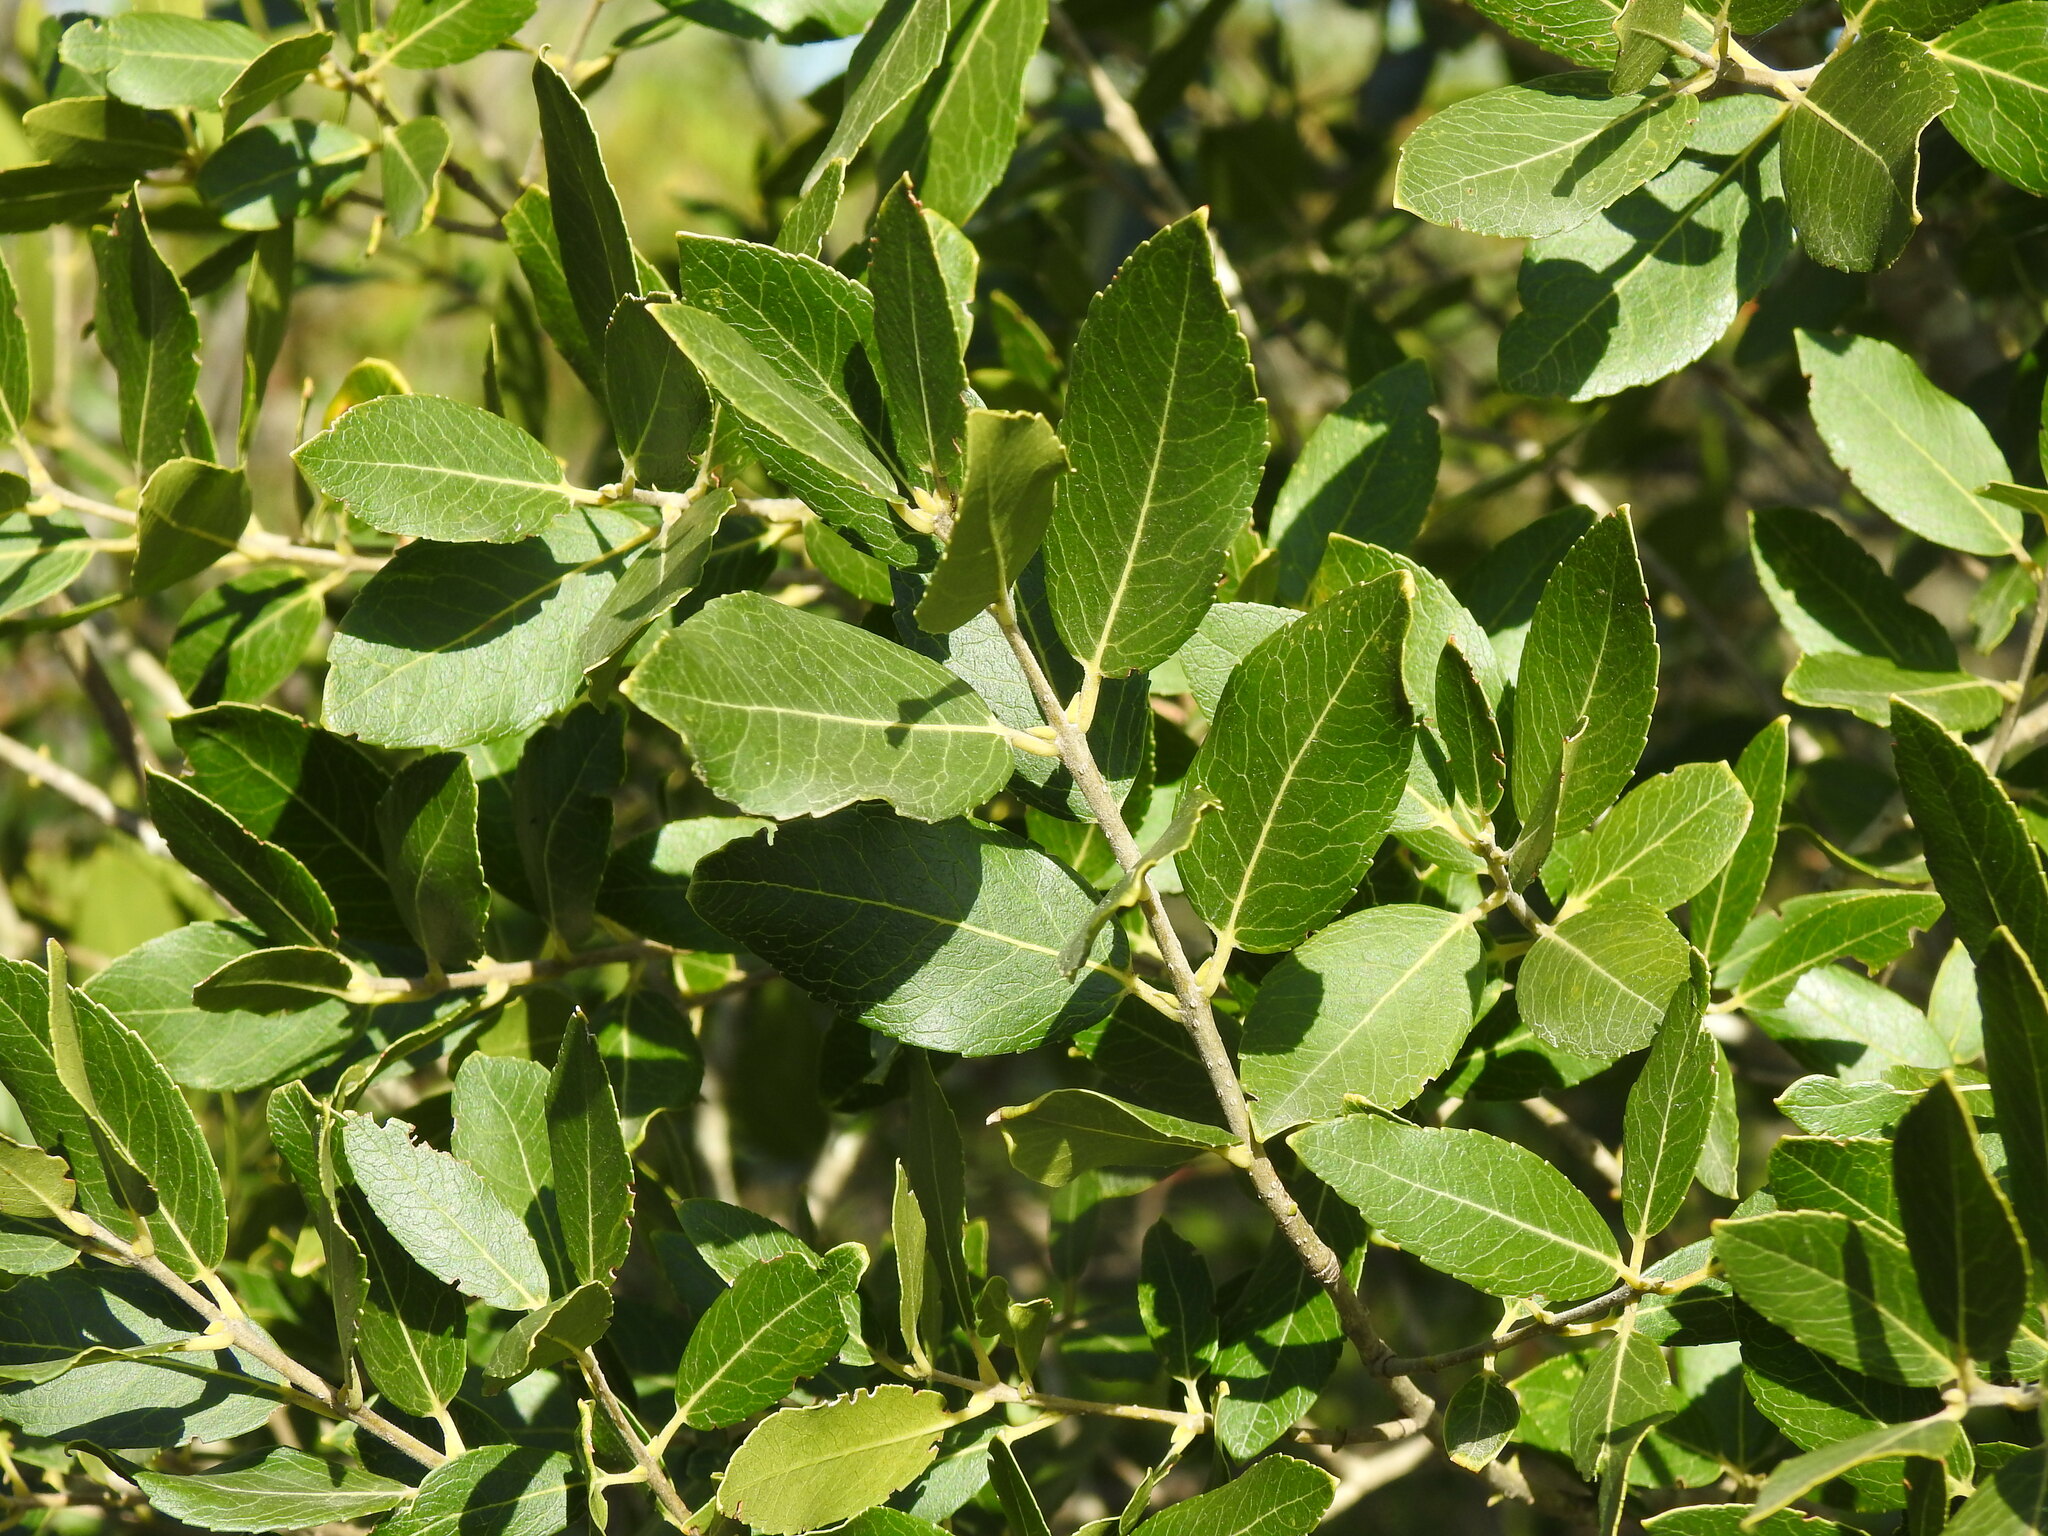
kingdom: Plantae
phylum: Tracheophyta
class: Magnoliopsida
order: Lamiales
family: Oleaceae
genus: Phillyrea
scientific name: Phillyrea latifolia
